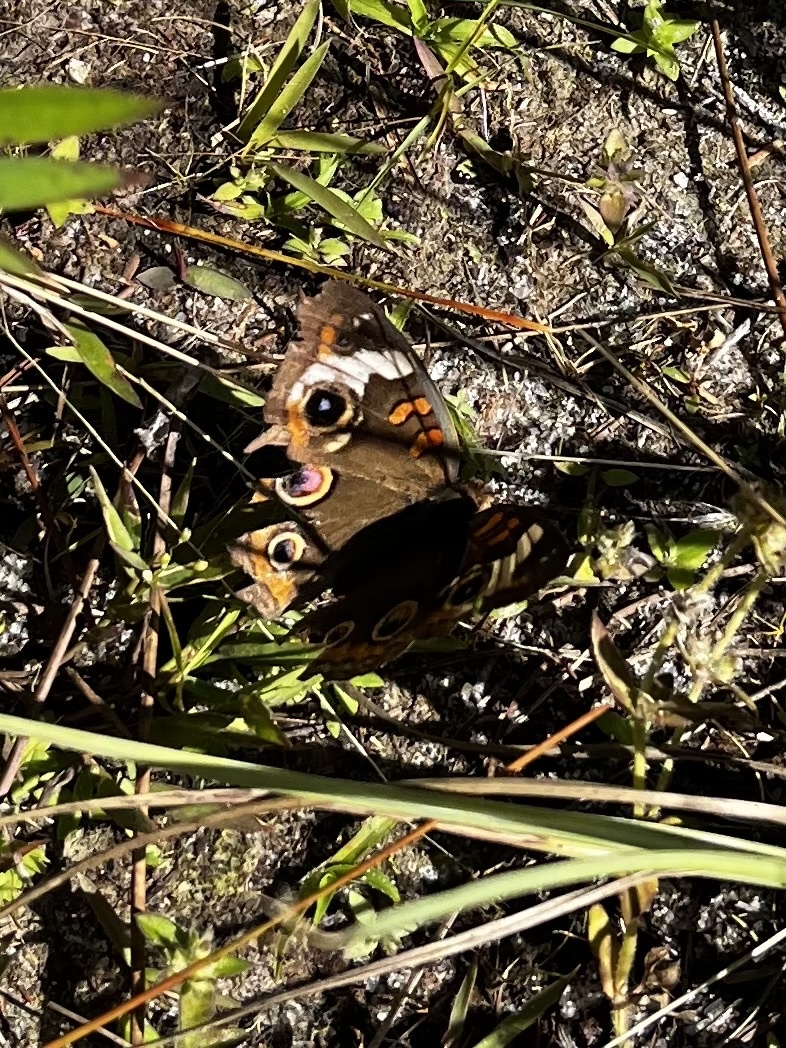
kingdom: Animalia
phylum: Arthropoda
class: Insecta
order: Lepidoptera
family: Nymphalidae
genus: Junonia
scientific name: Junonia coenia
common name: Common buckeye
